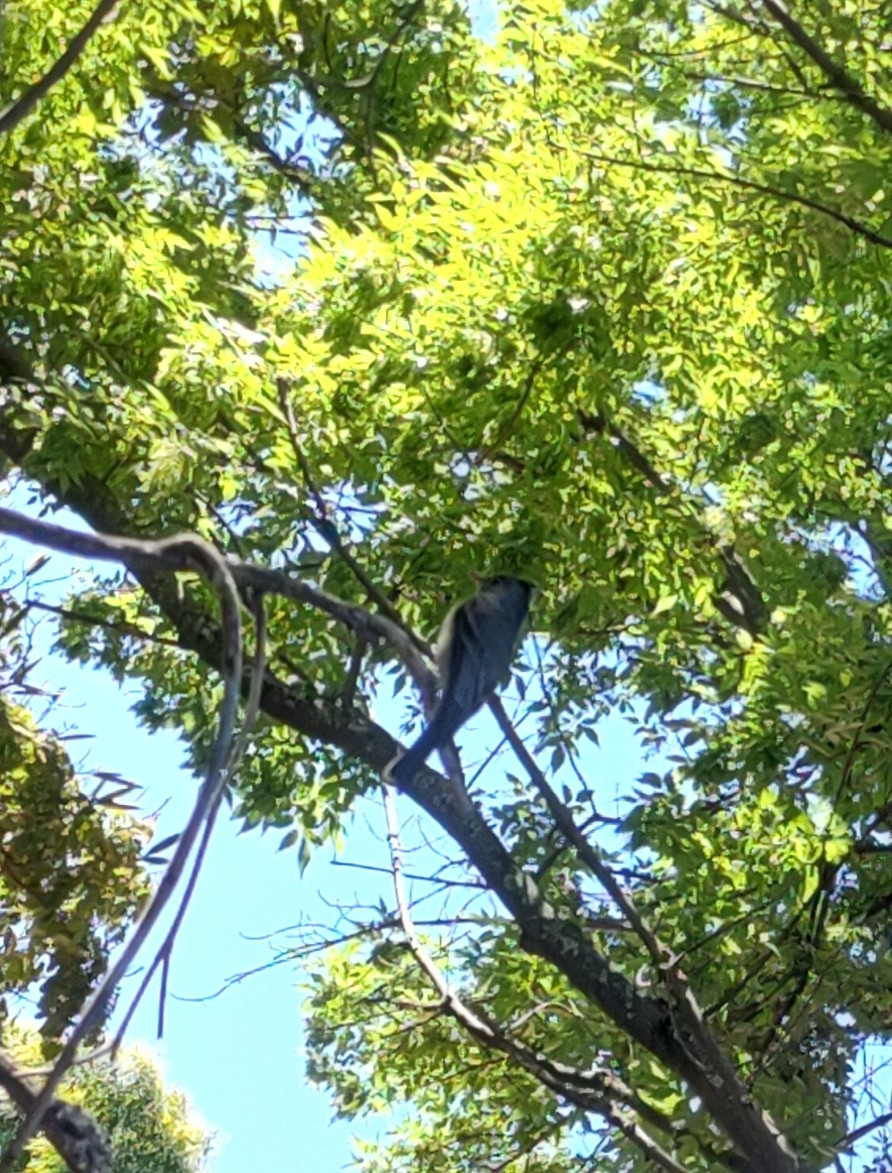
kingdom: Animalia
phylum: Chordata
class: Aves
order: Passeriformes
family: Tyrannidae
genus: Contopus
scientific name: Contopus pertinax
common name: Greater pewee
